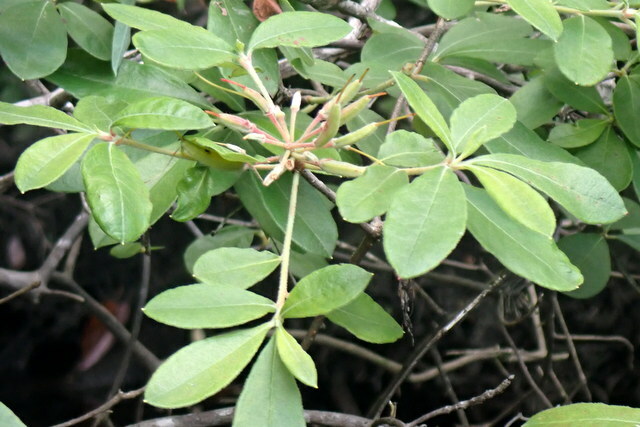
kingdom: Plantae
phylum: Tracheophyta
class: Magnoliopsida
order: Ericales
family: Ericaceae
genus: Rhododendron
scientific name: Rhododendron canescens
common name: Mountain azalea
